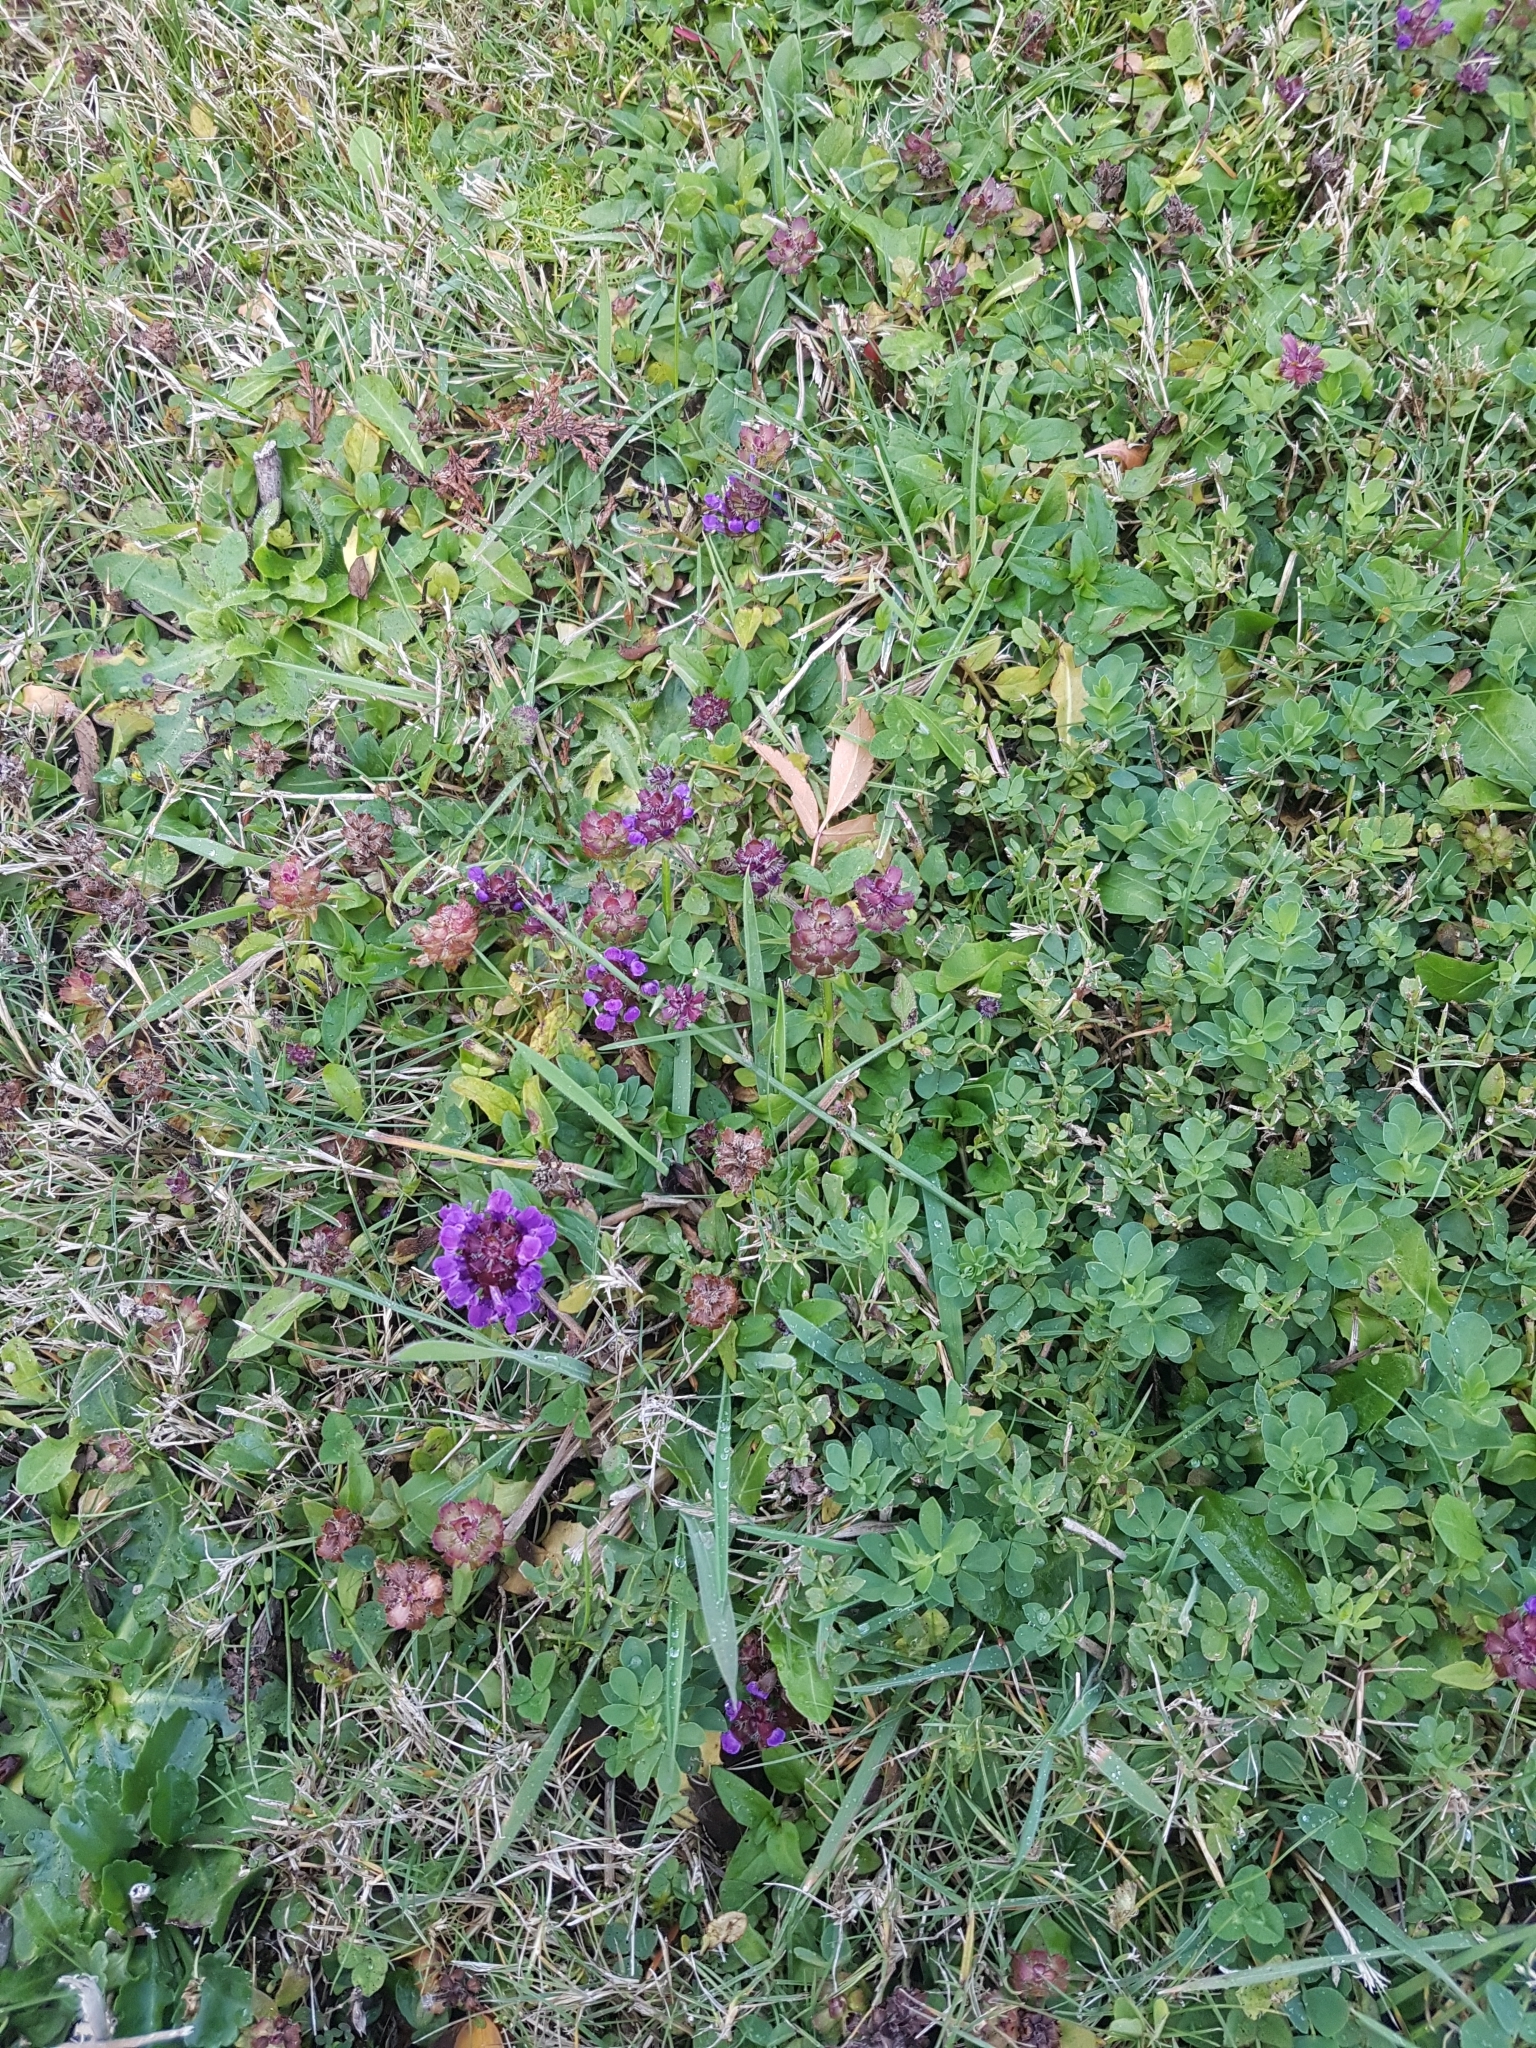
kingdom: Plantae
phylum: Tracheophyta
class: Magnoliopsida
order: Lamiales
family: Lamiaceae
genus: Prunella
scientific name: Prunella vulgaris
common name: Heal-all
